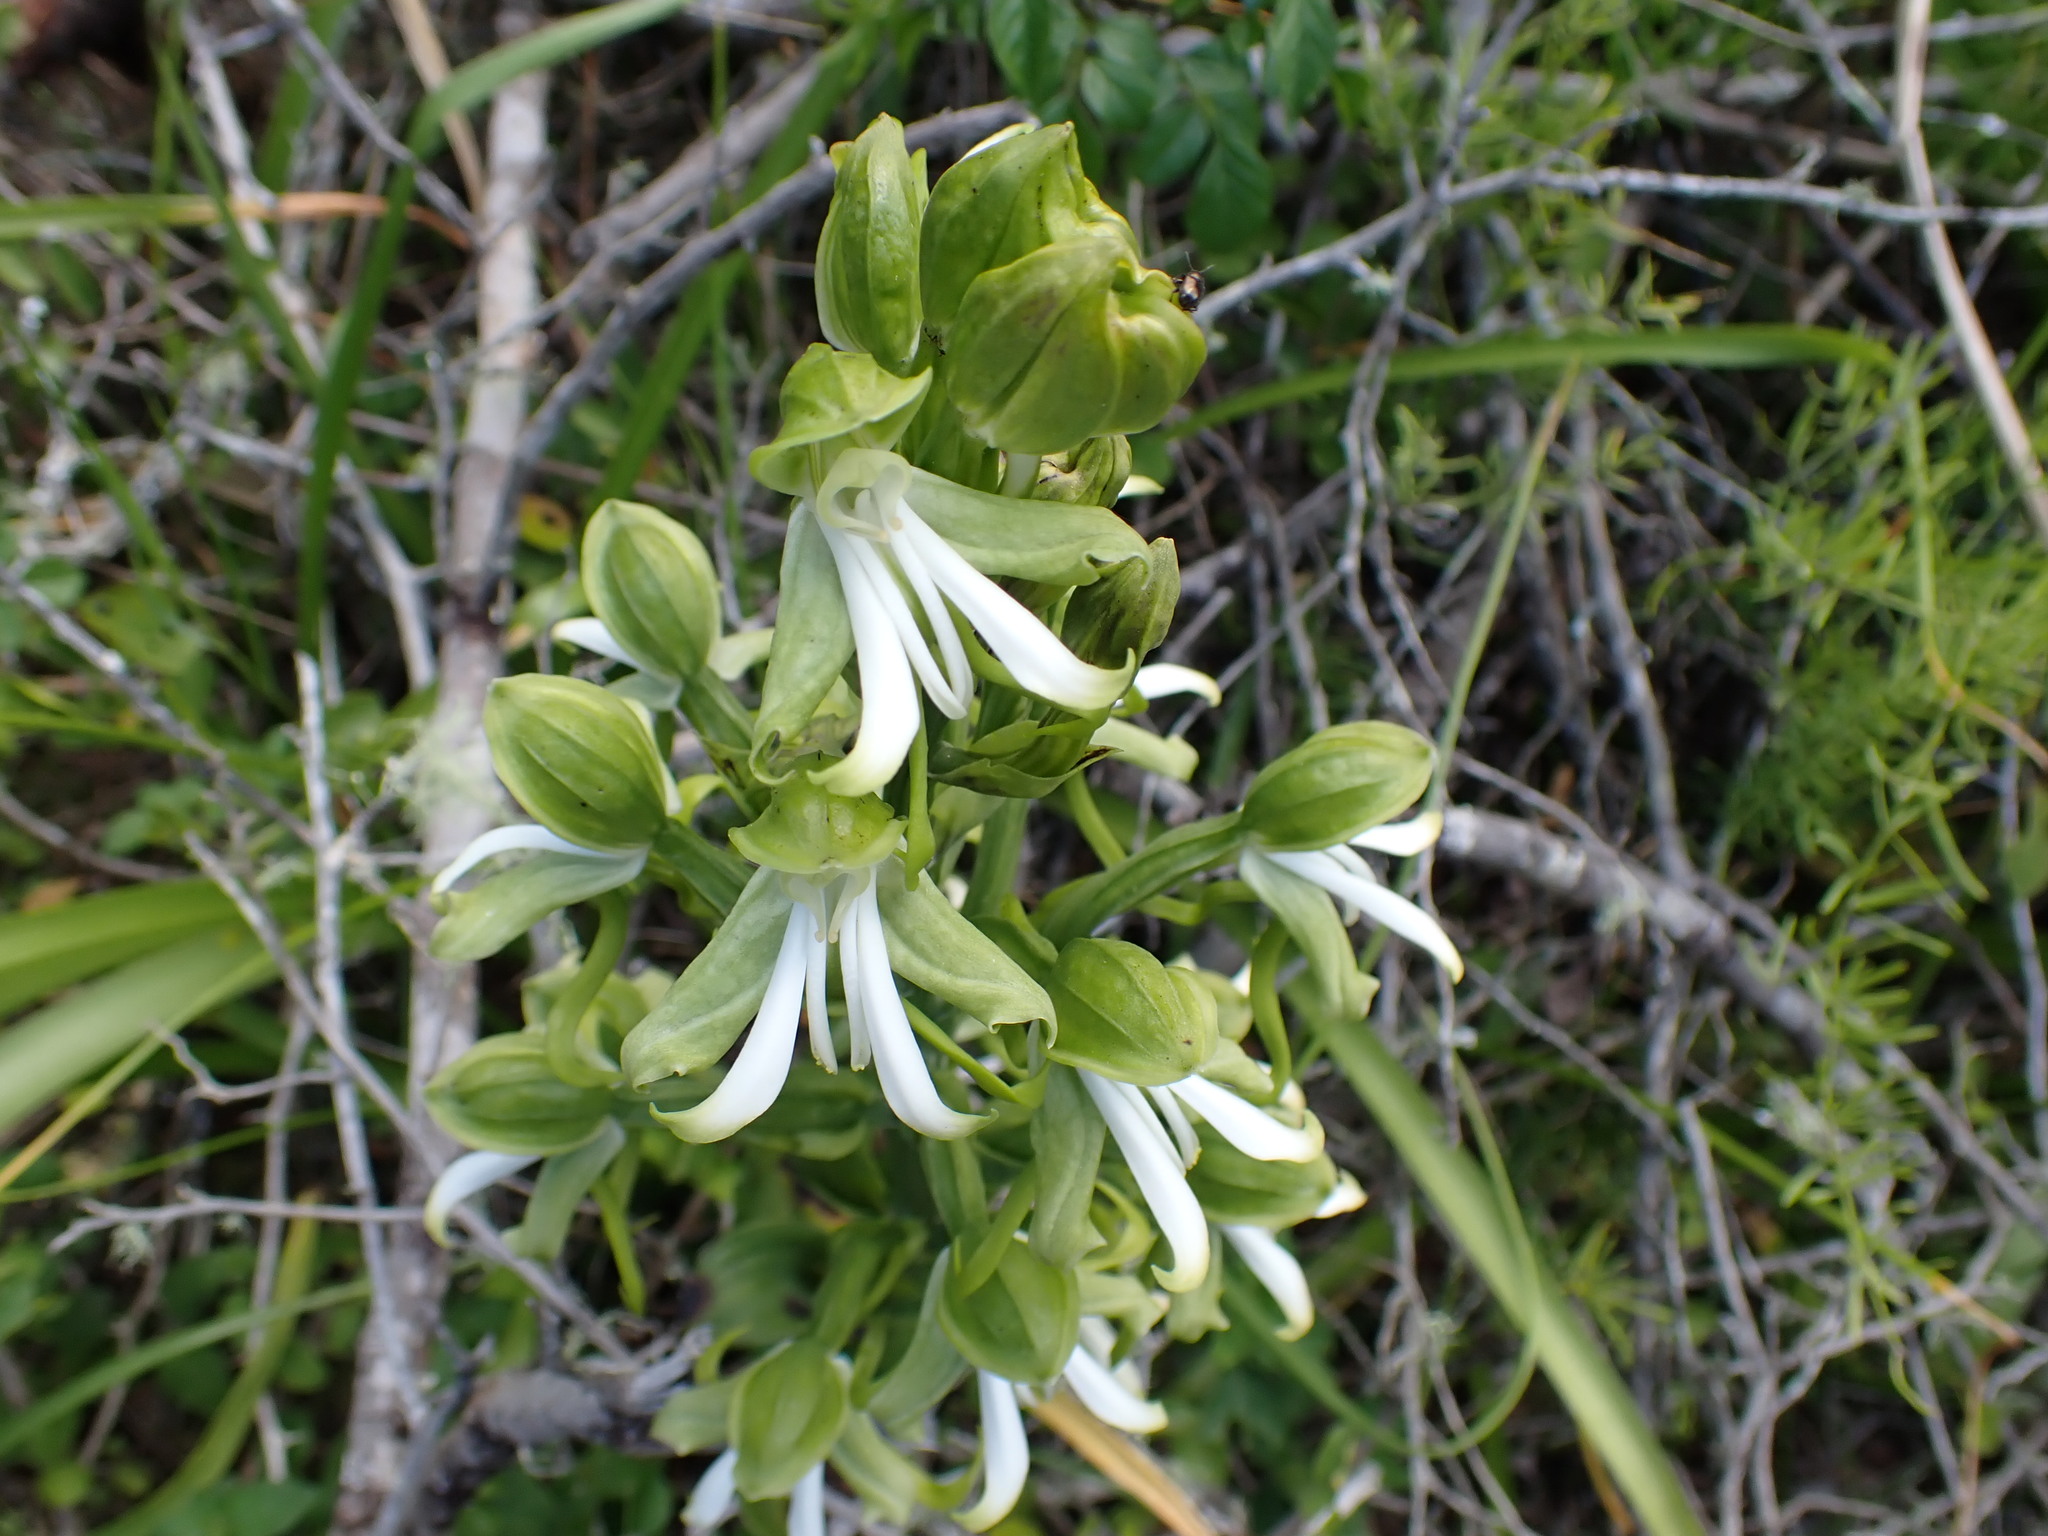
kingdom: Plantae
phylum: Tracheophyta
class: Liliopsida
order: Asparagales
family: Orchidaceae
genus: Bonatea
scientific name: Bonatea speciosa
